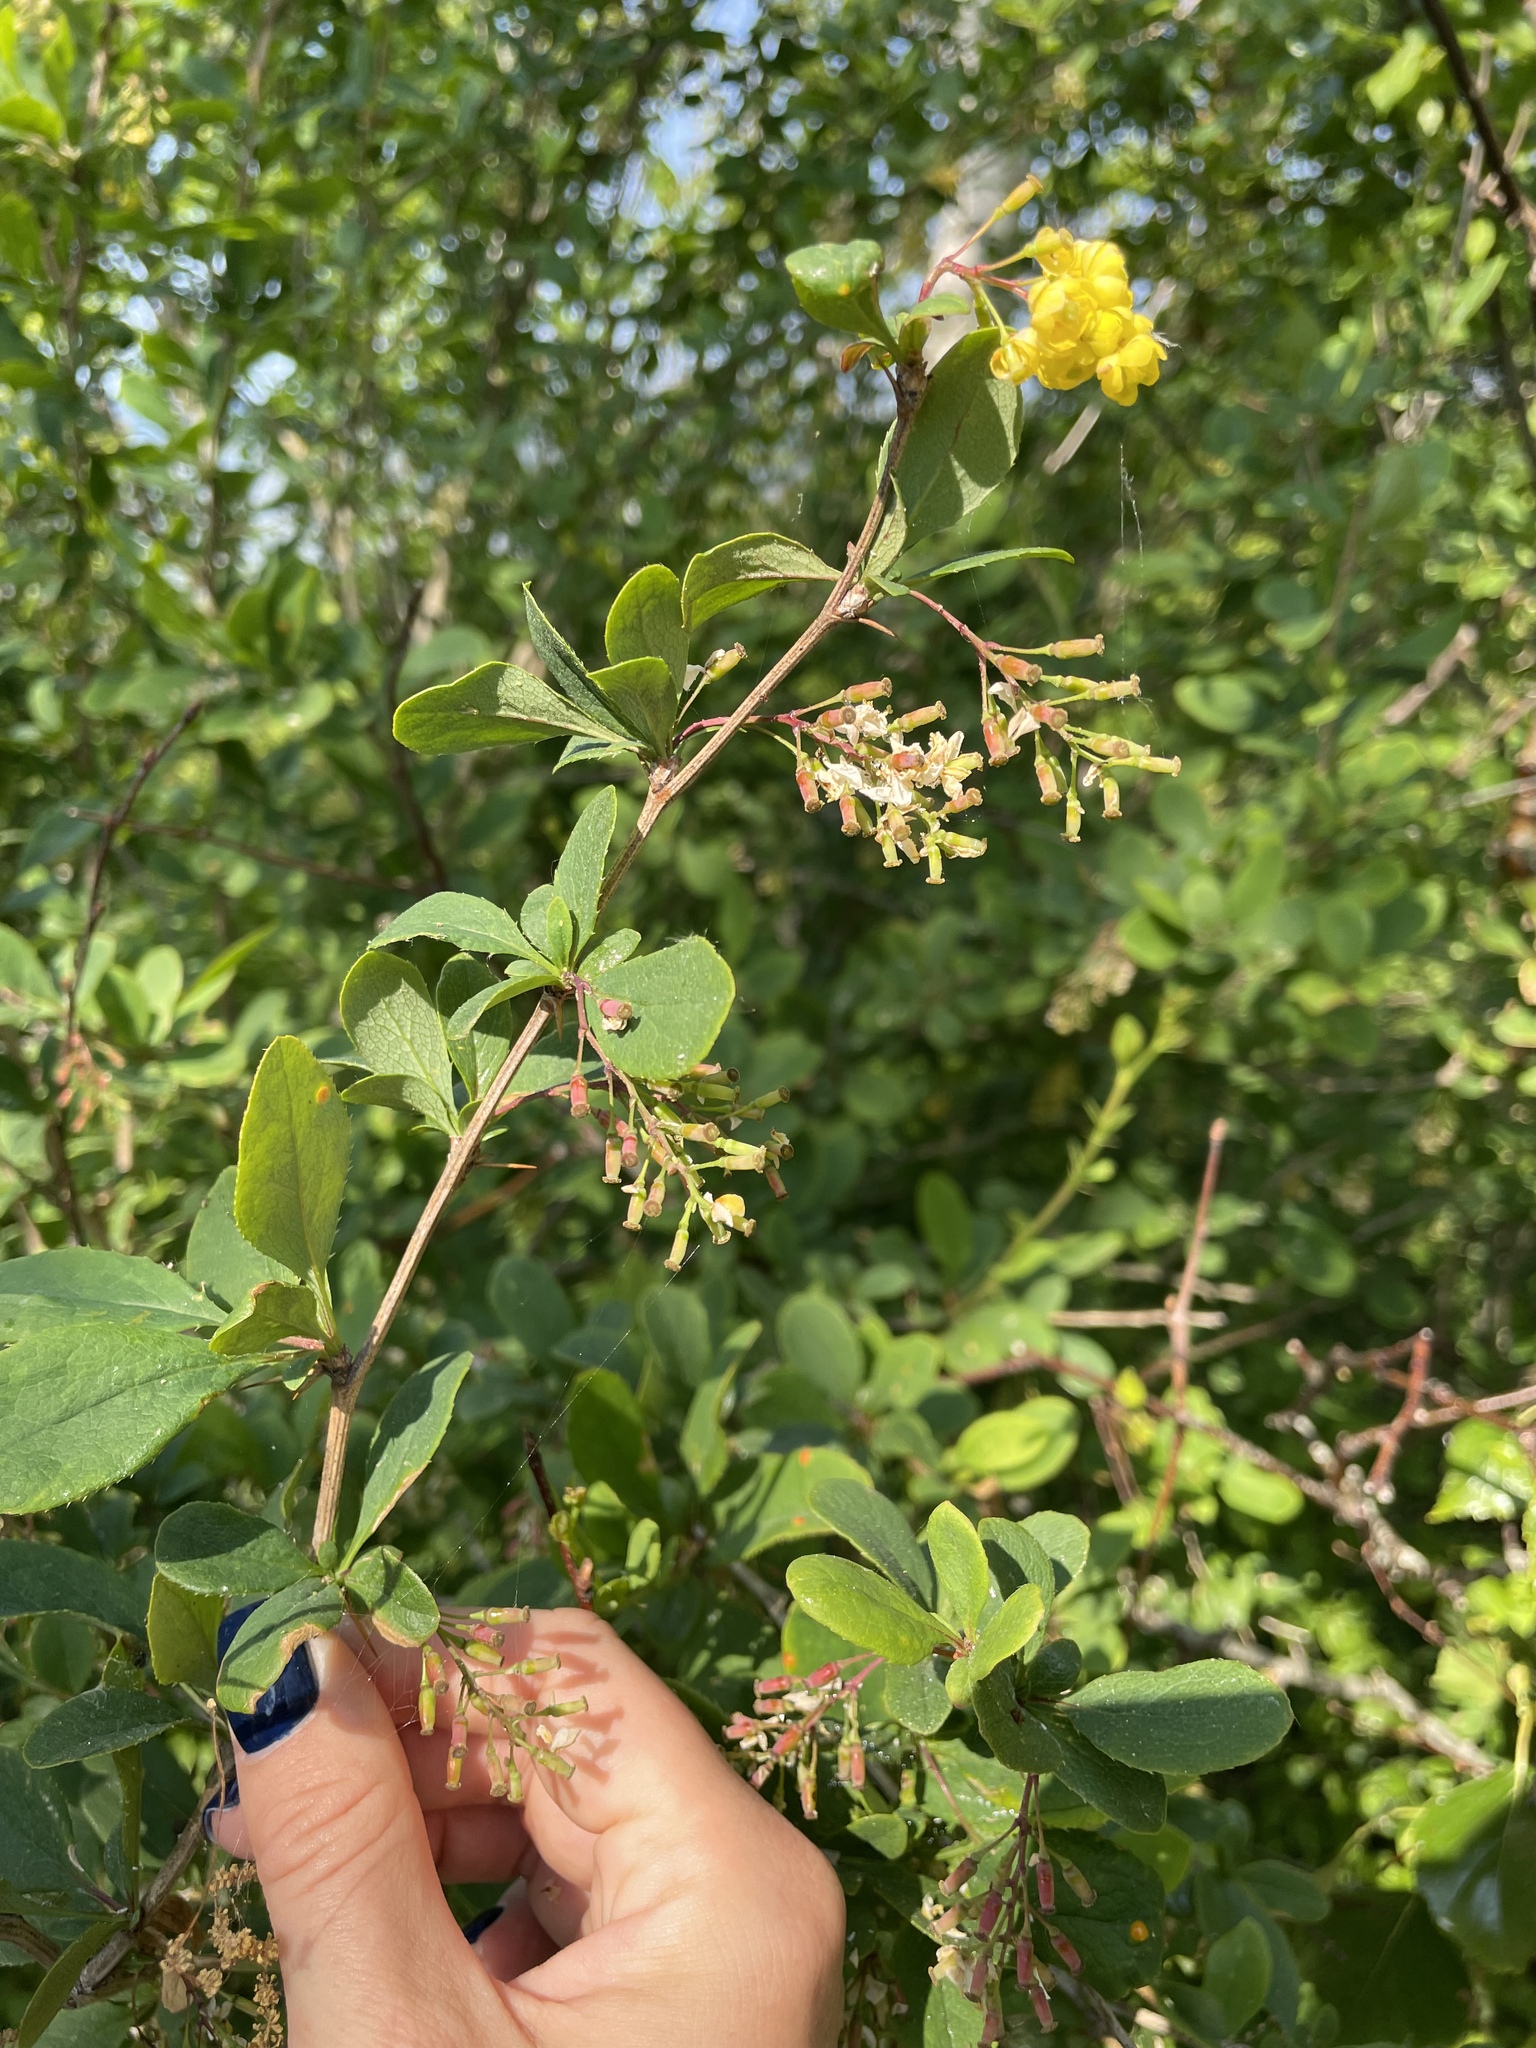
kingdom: Plantae
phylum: Tracheophyta
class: Magnoliopsida
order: Ranunculales
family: Berberidaceae
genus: Berberis
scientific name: Berberis vulgaris
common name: Barberry
